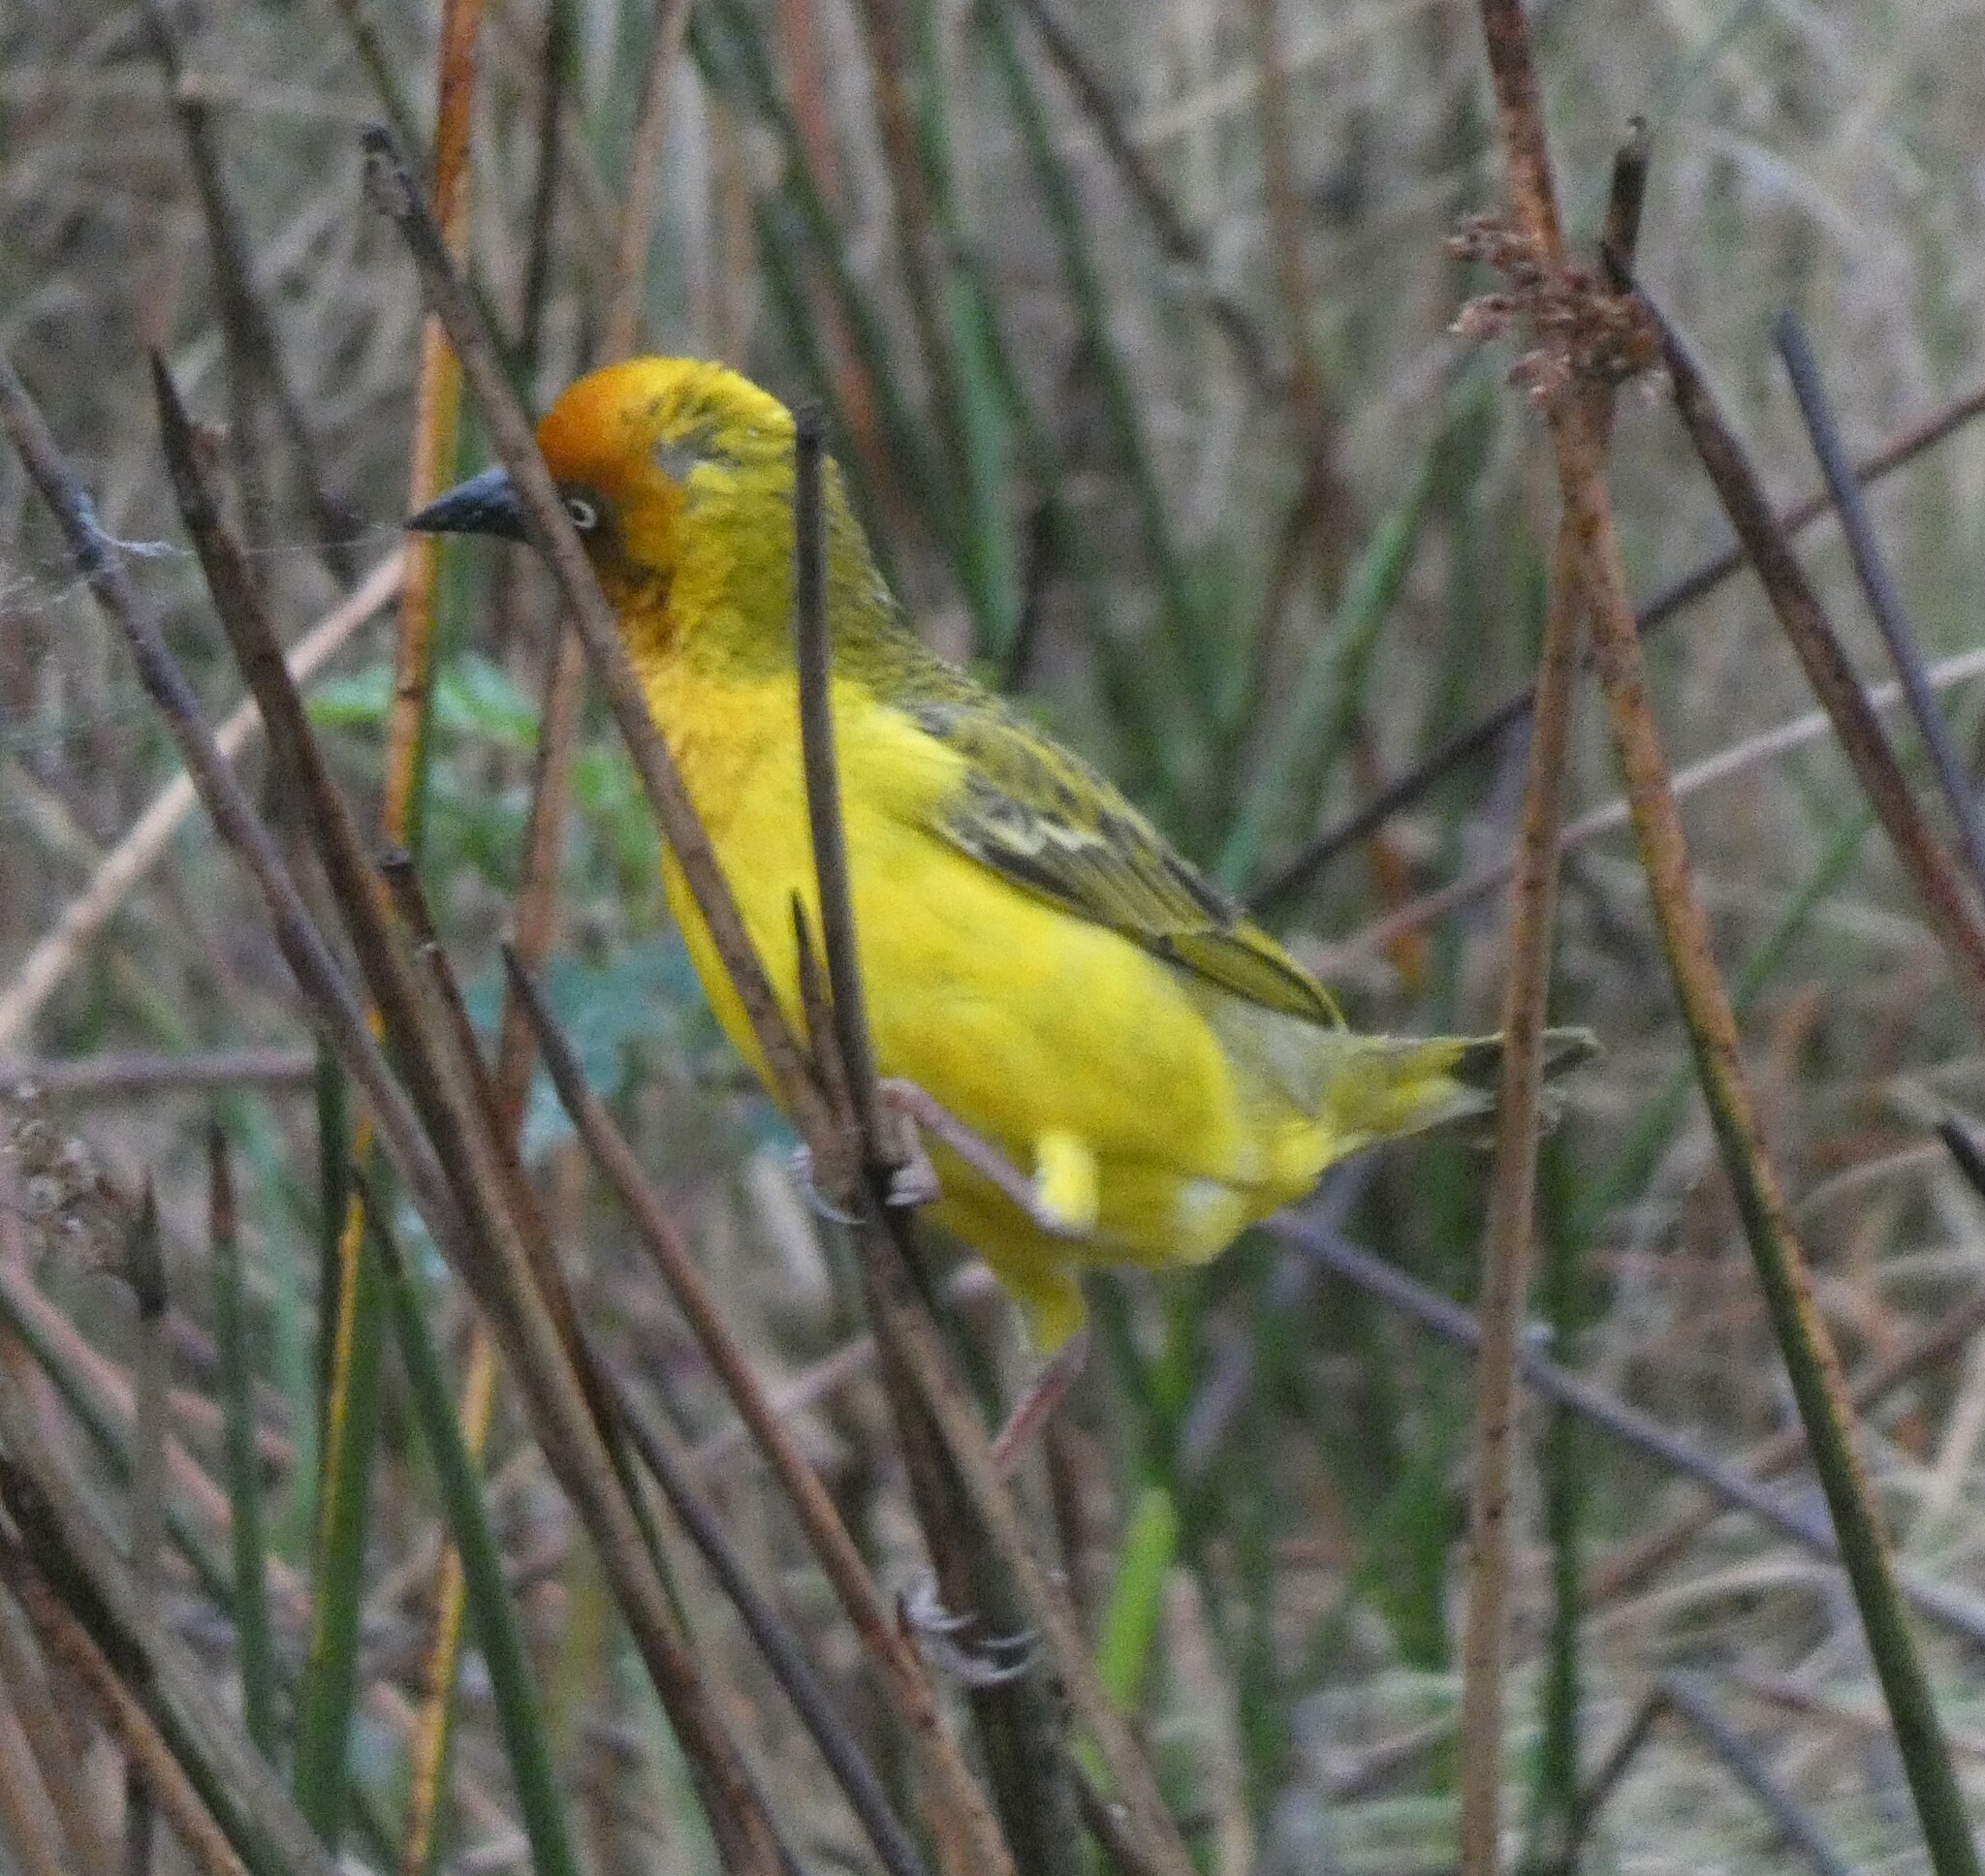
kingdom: Animalia
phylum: Chordata
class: Aves
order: Passeriformes
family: Ploceidae
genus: Ploceus
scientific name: Ploceus capensis
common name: Cape weaver
